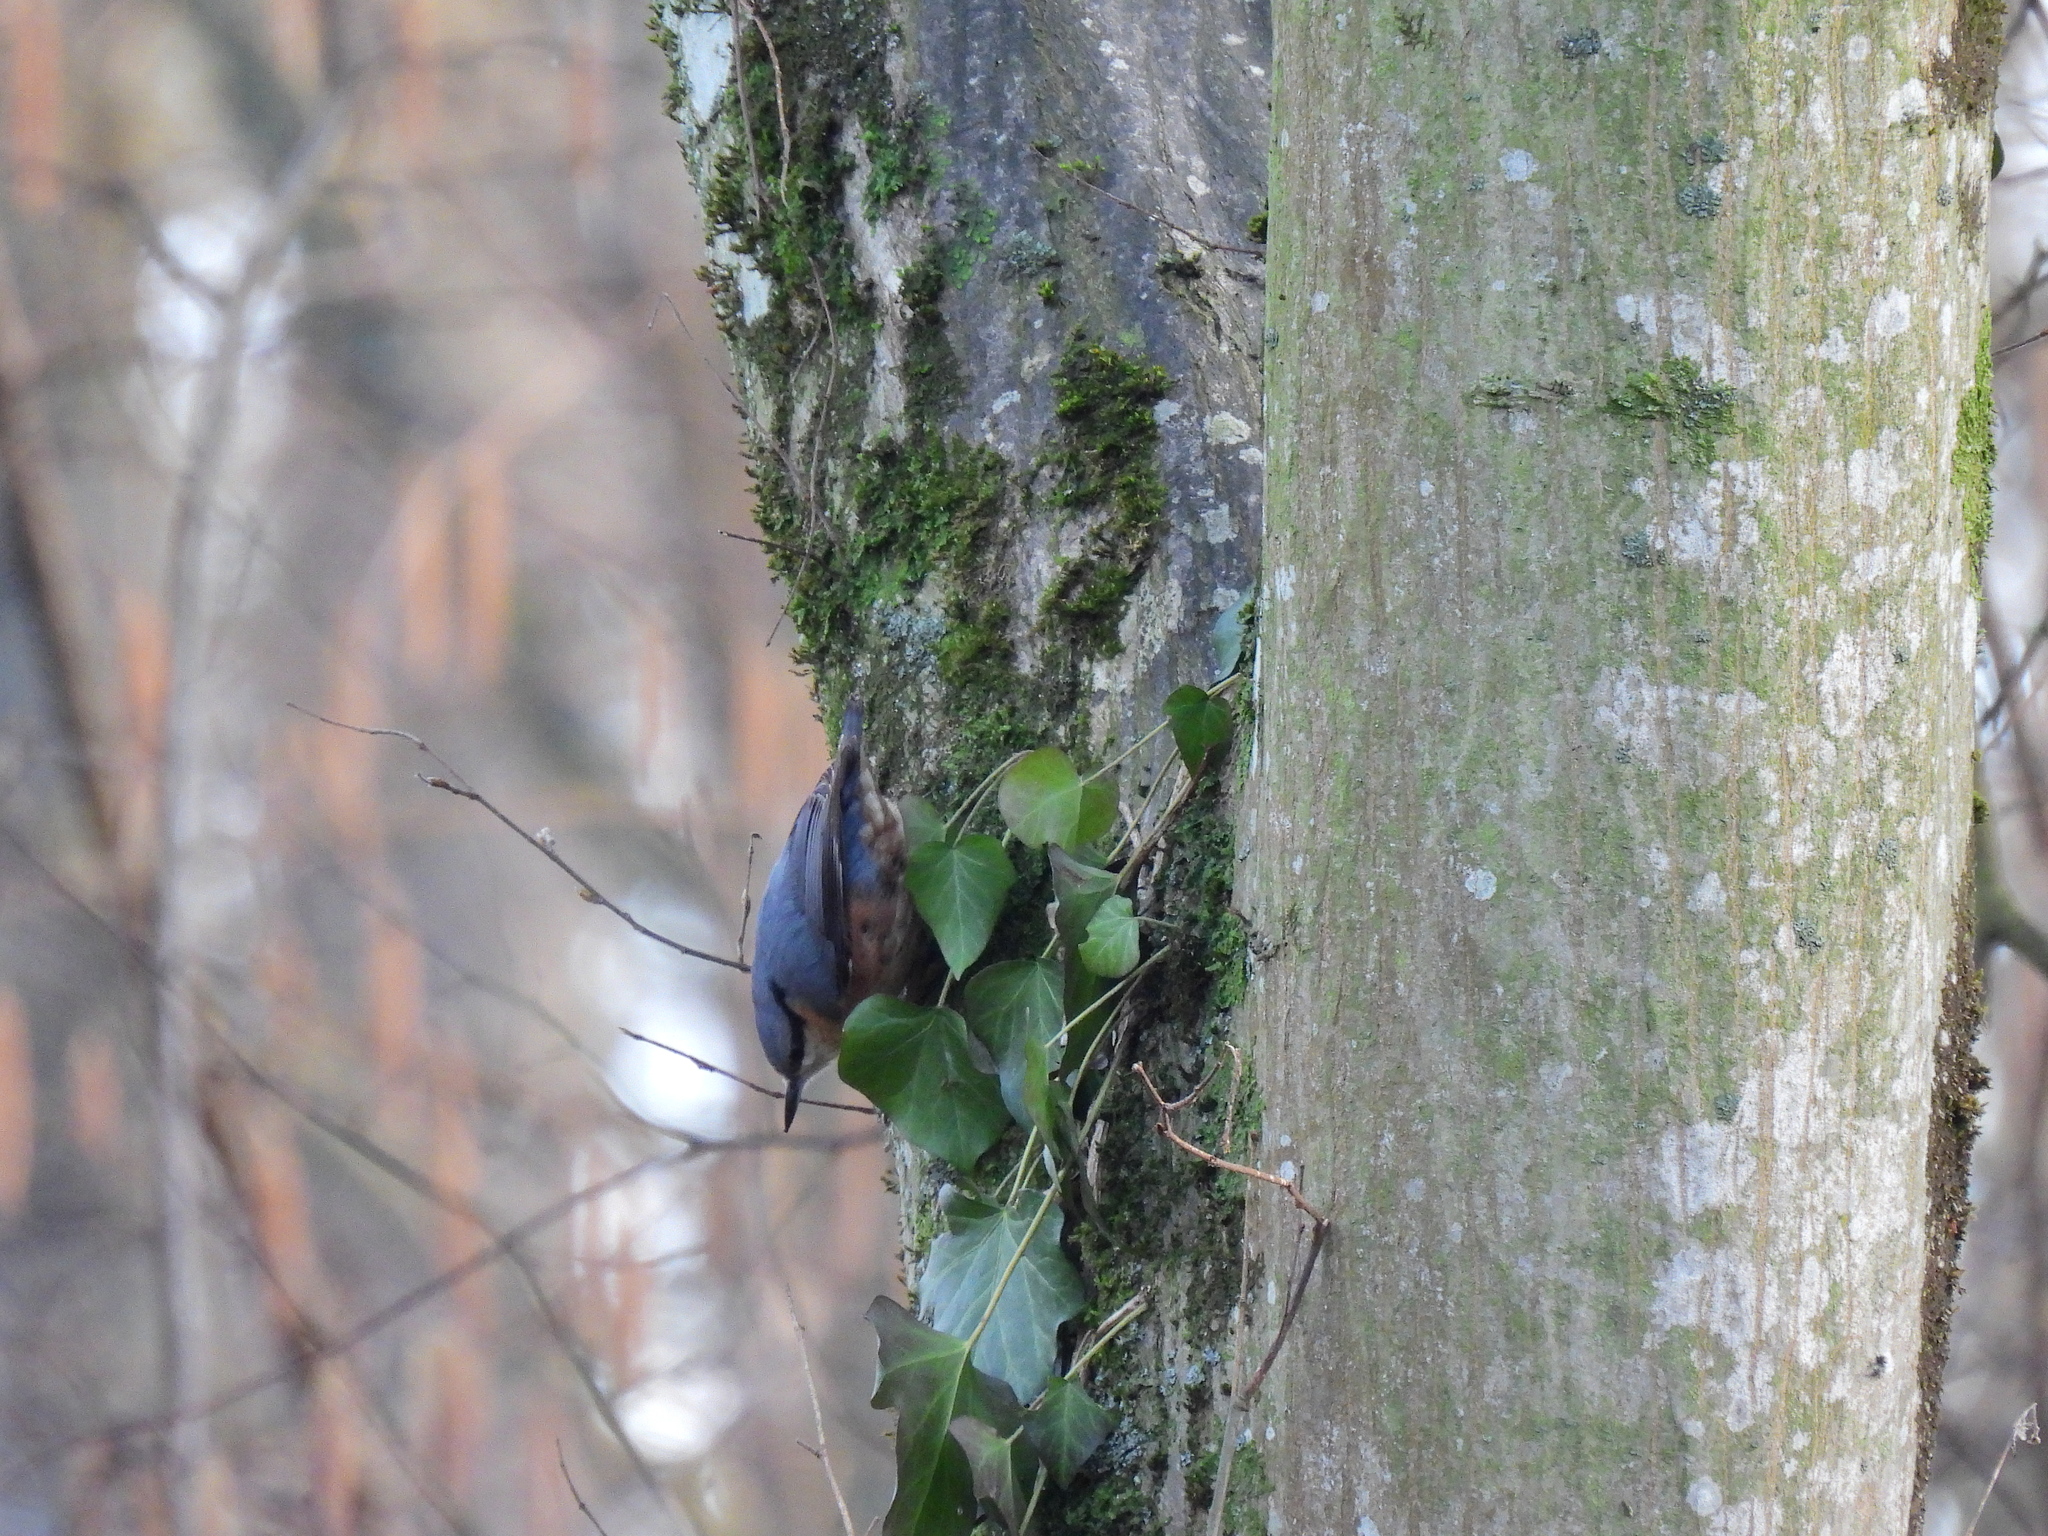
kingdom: Animalia
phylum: Chordata
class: Aves
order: Passeriformes
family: Sittidae
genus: Sitta
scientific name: Sitta europaea
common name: Eurasian nuthatch
